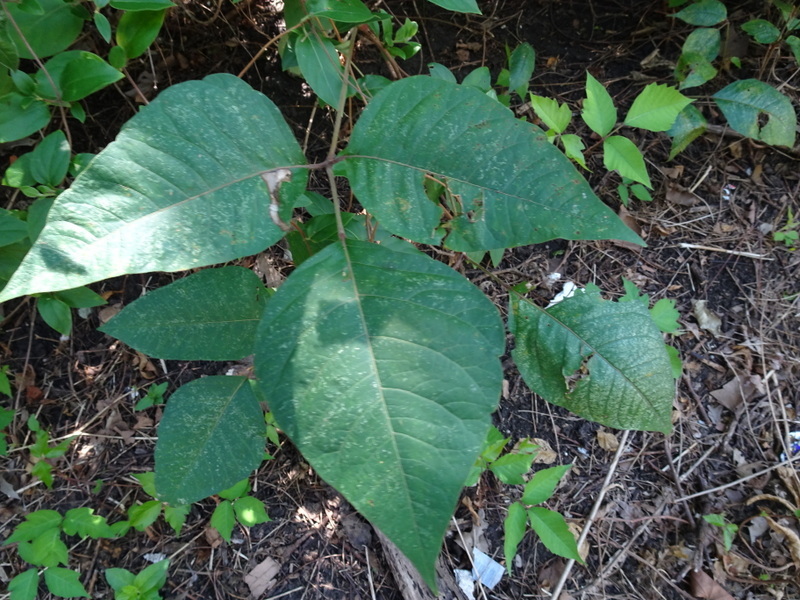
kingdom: Plantae
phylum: Tracheophyta
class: Magnoliopsida
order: Sapindales
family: Anacardiaceae
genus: Toxicodendron
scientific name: Toxicodendron radicans
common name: Poison ivy
